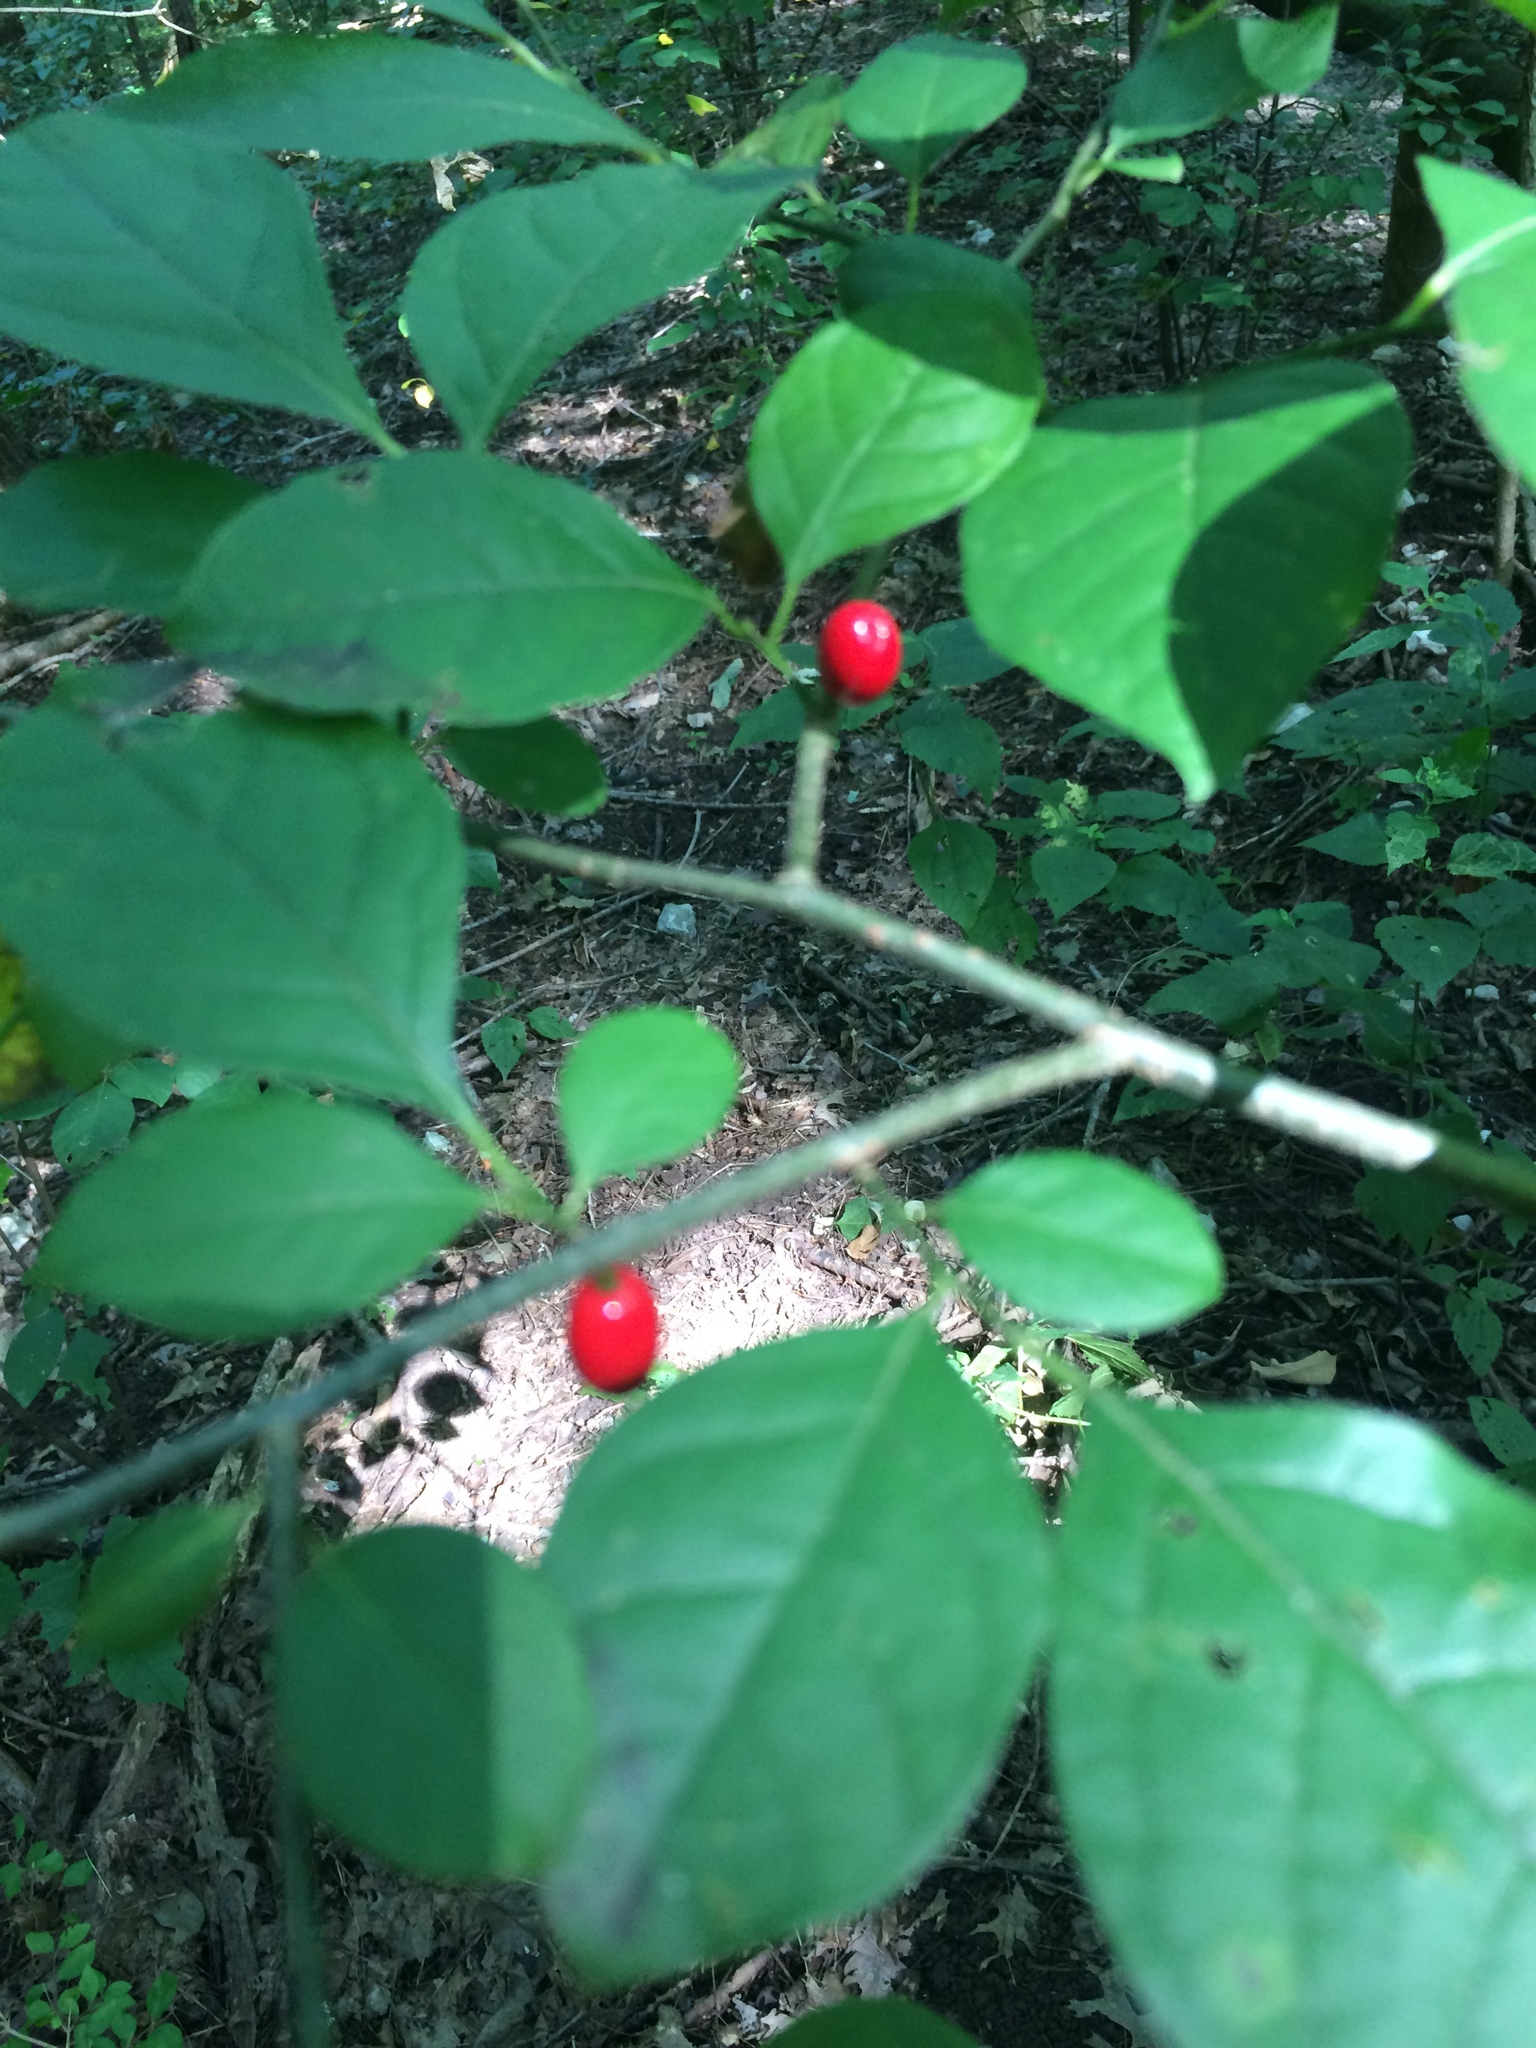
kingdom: Plantae
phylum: Tracheophyta
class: Magnoliopsida
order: Laurales
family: Lauraceae
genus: Lindera
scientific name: Lindera benzoin
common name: Spicebush
